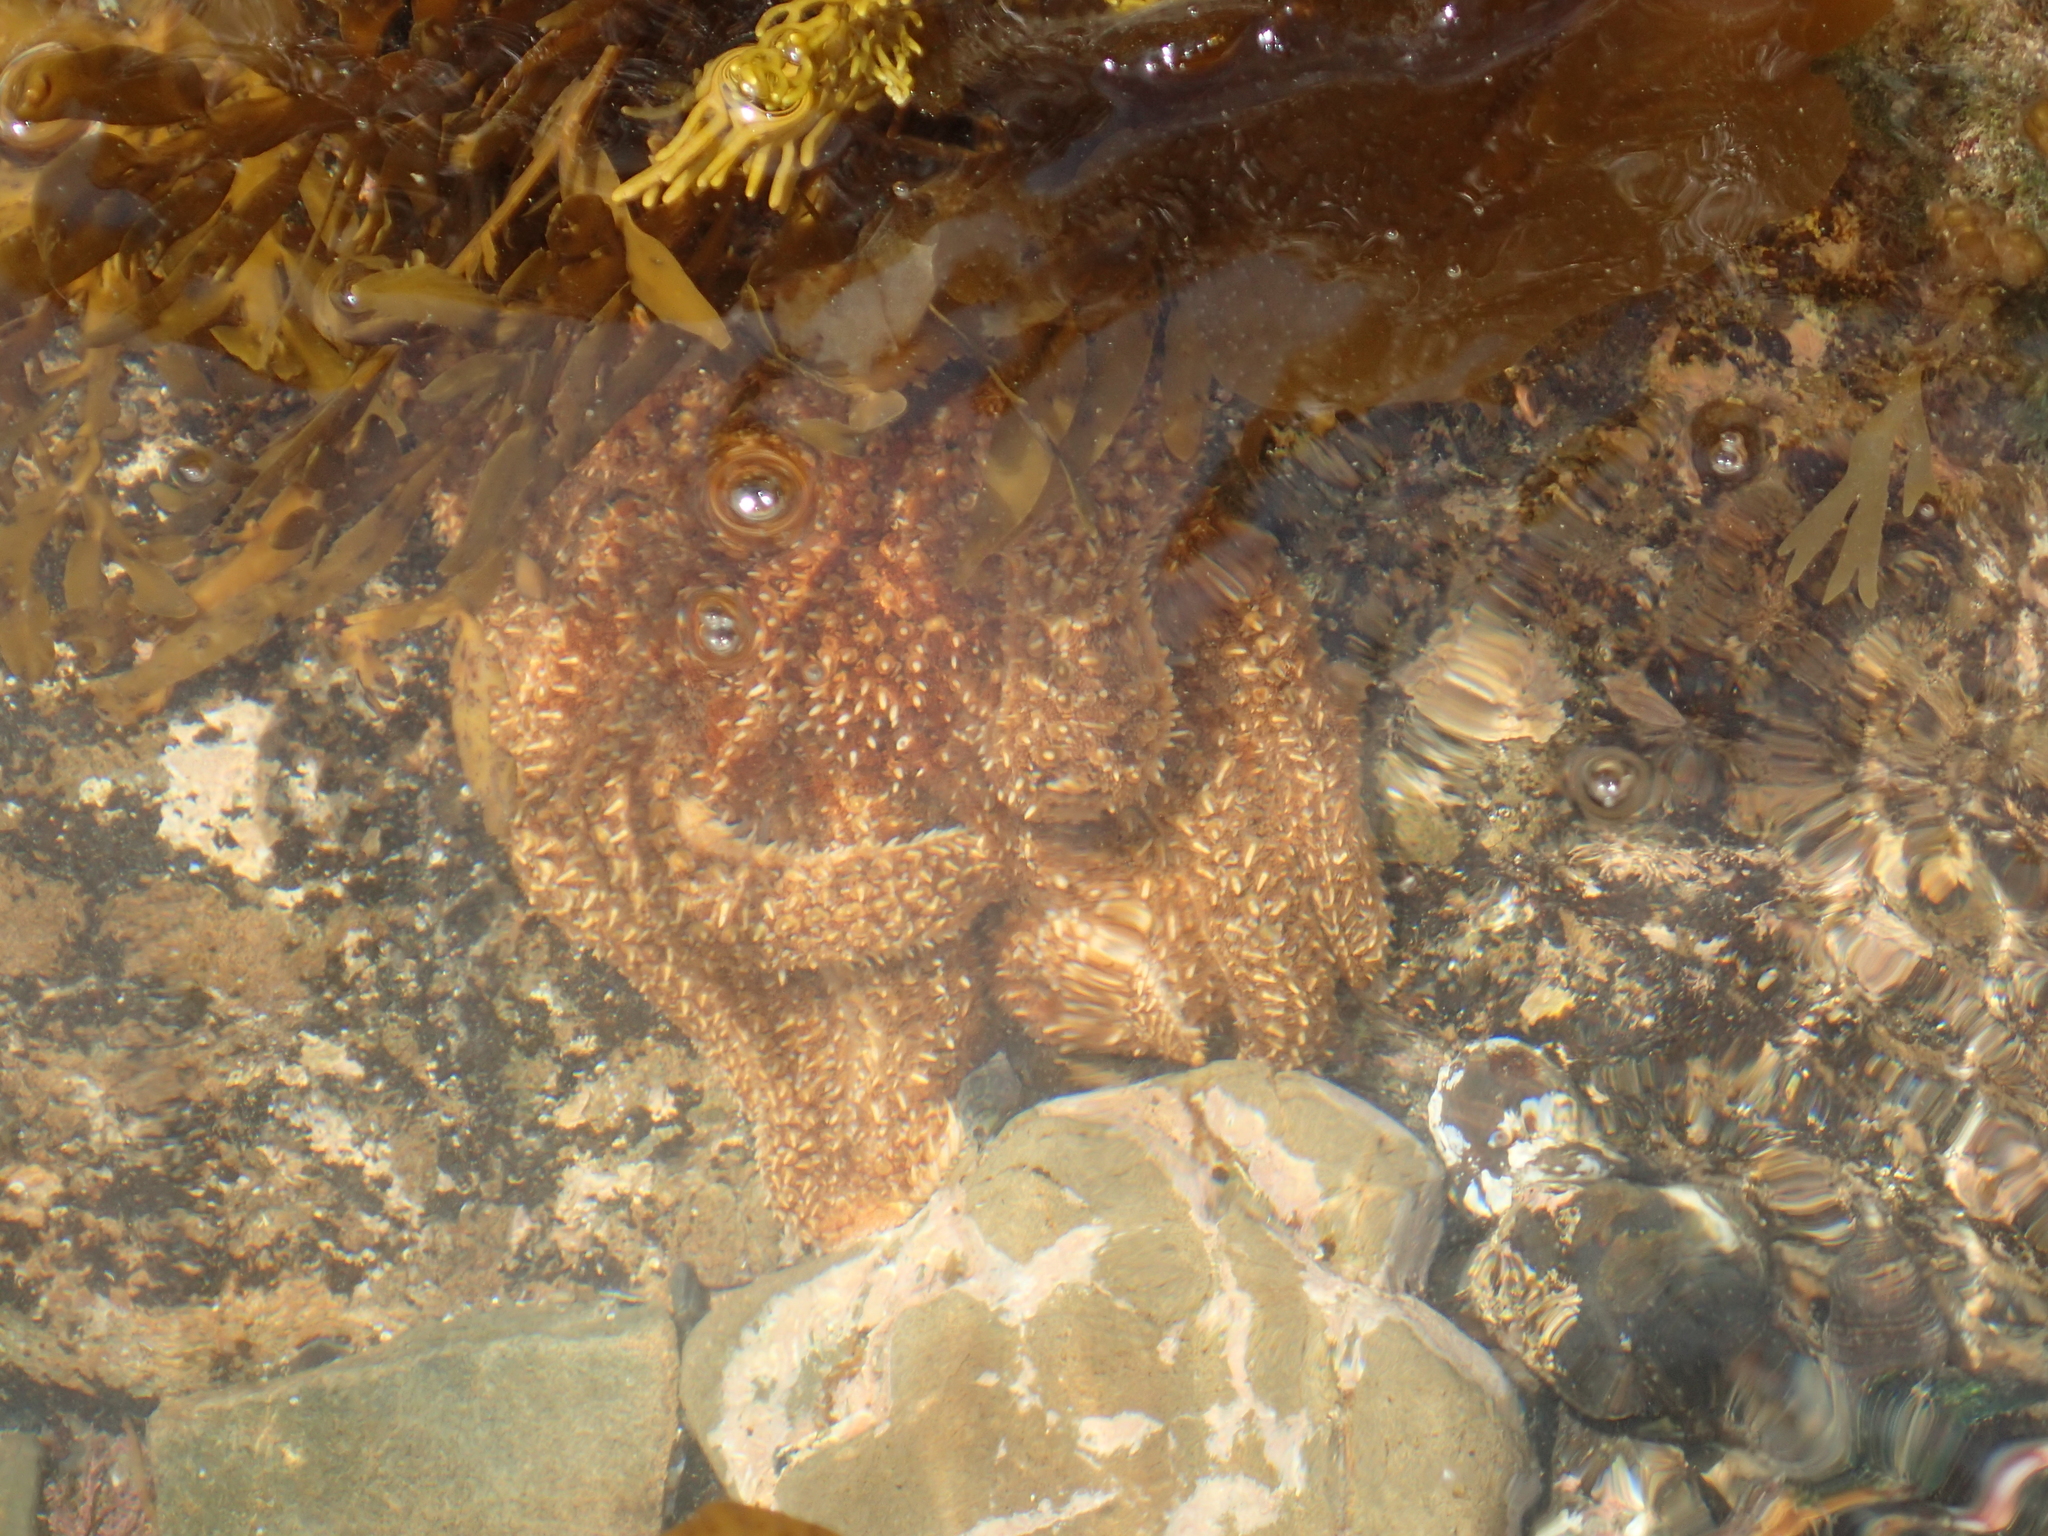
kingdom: Animalia
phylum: Echinodermata
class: Asteroidea
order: Forcipulatida
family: Asteriidae
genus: Coscinasterias
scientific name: Coscinasterias muricata
